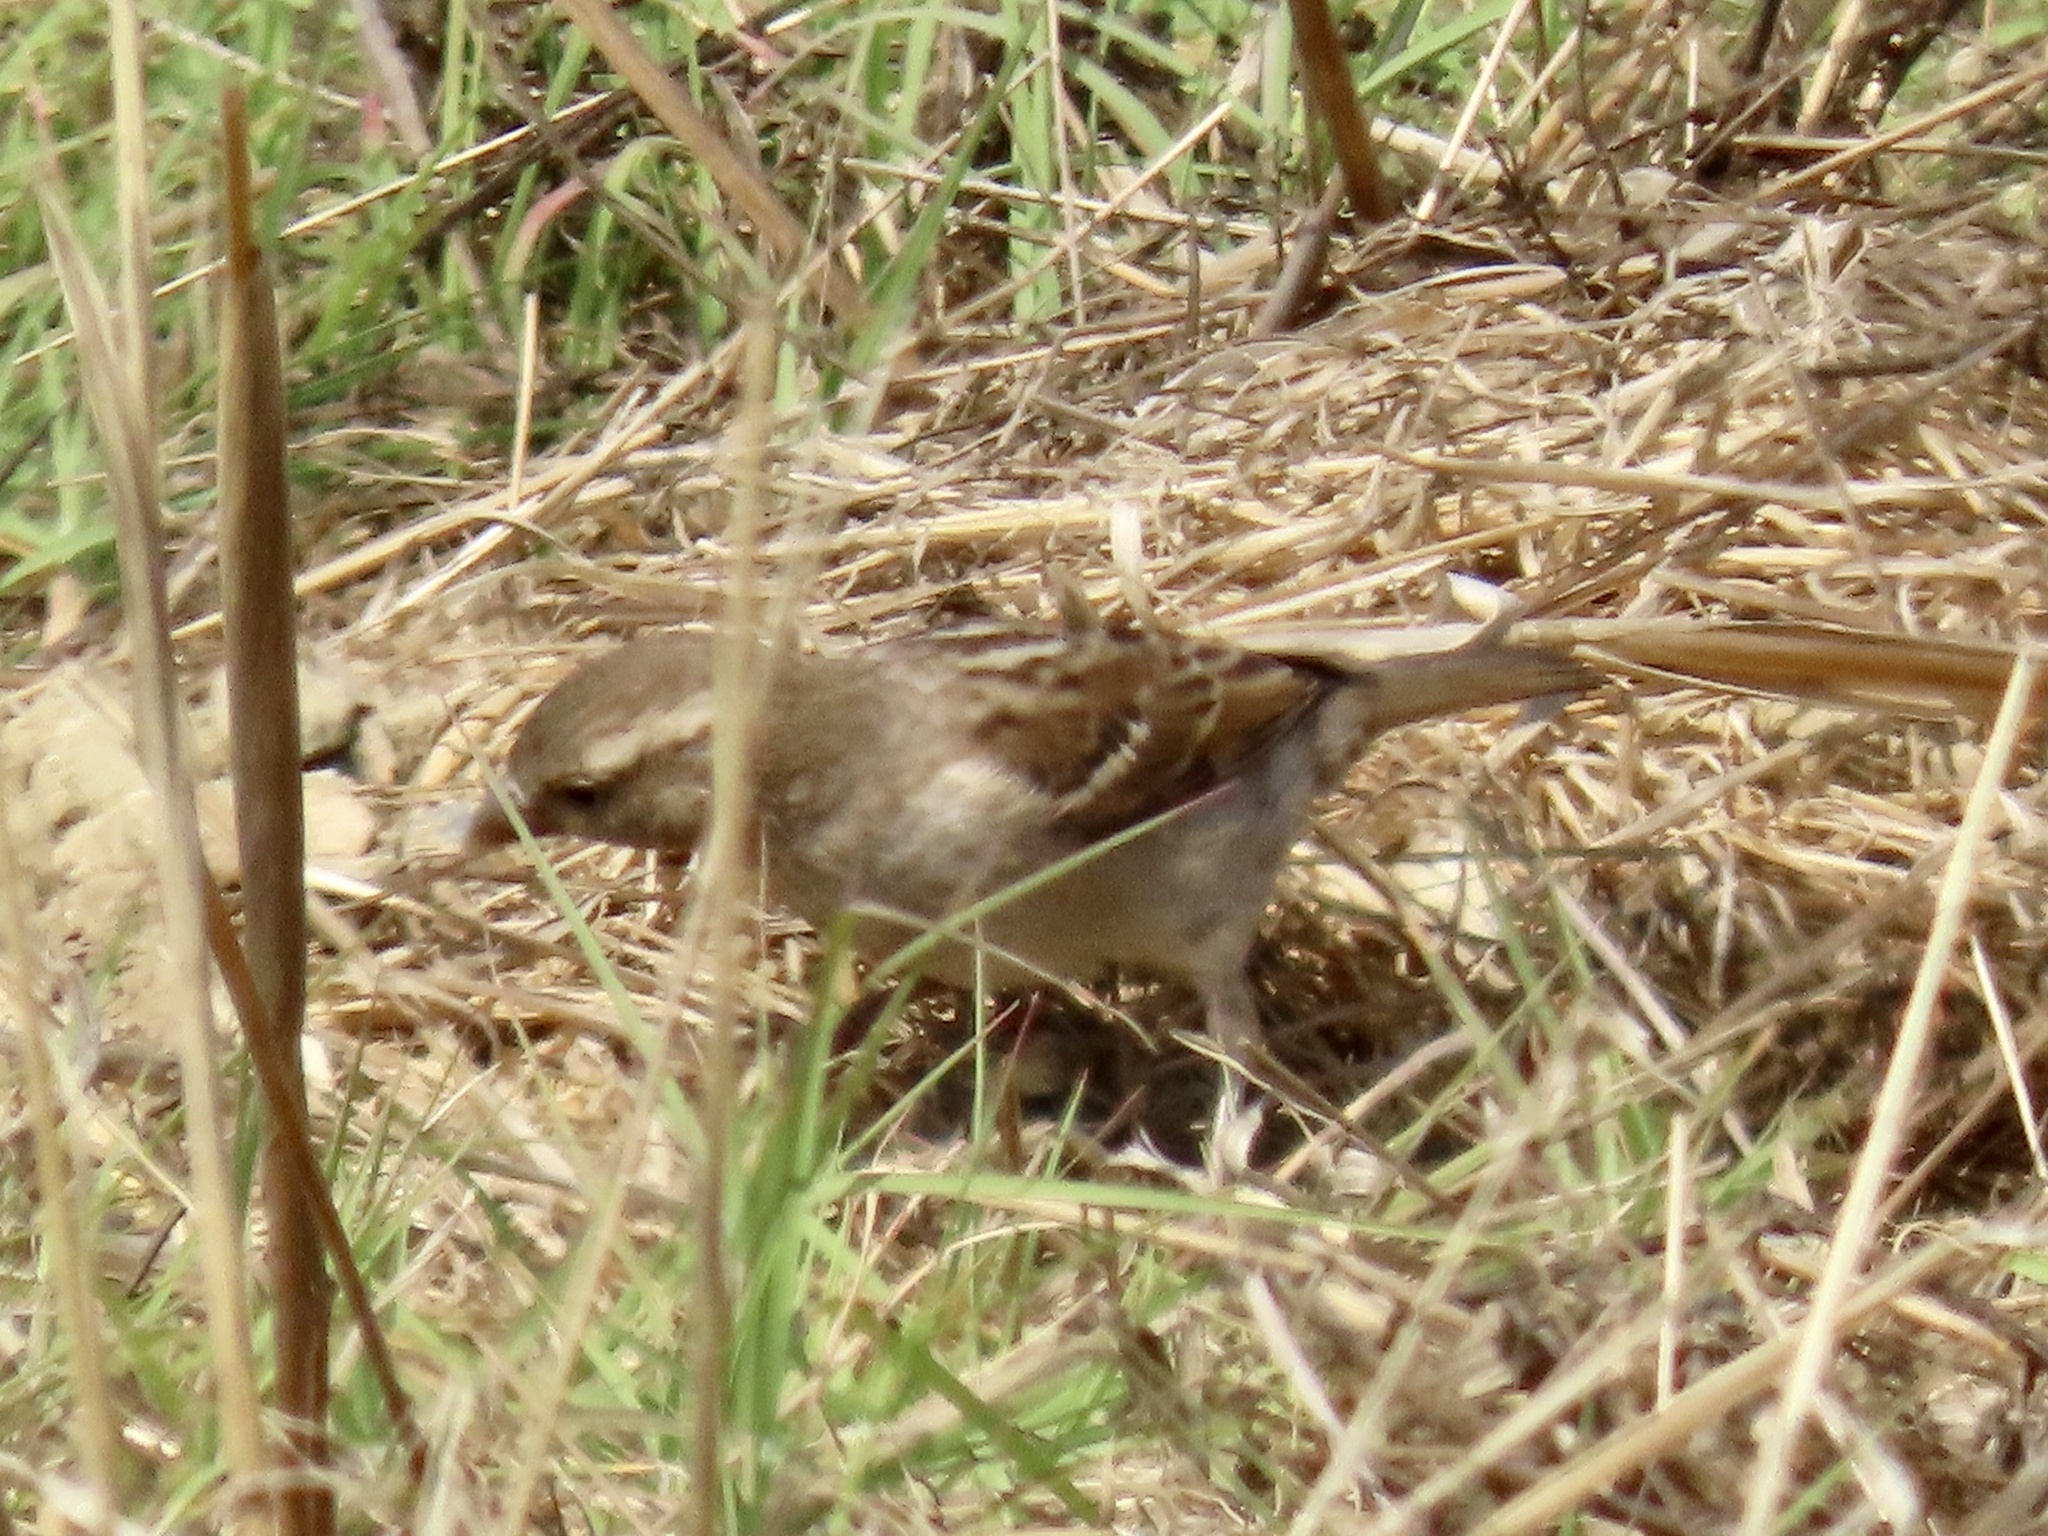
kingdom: Animalia
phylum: Chordata
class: Aves
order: Passeriformes
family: Passeridae
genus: Passer
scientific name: Passer domesticus
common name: House sparrow
